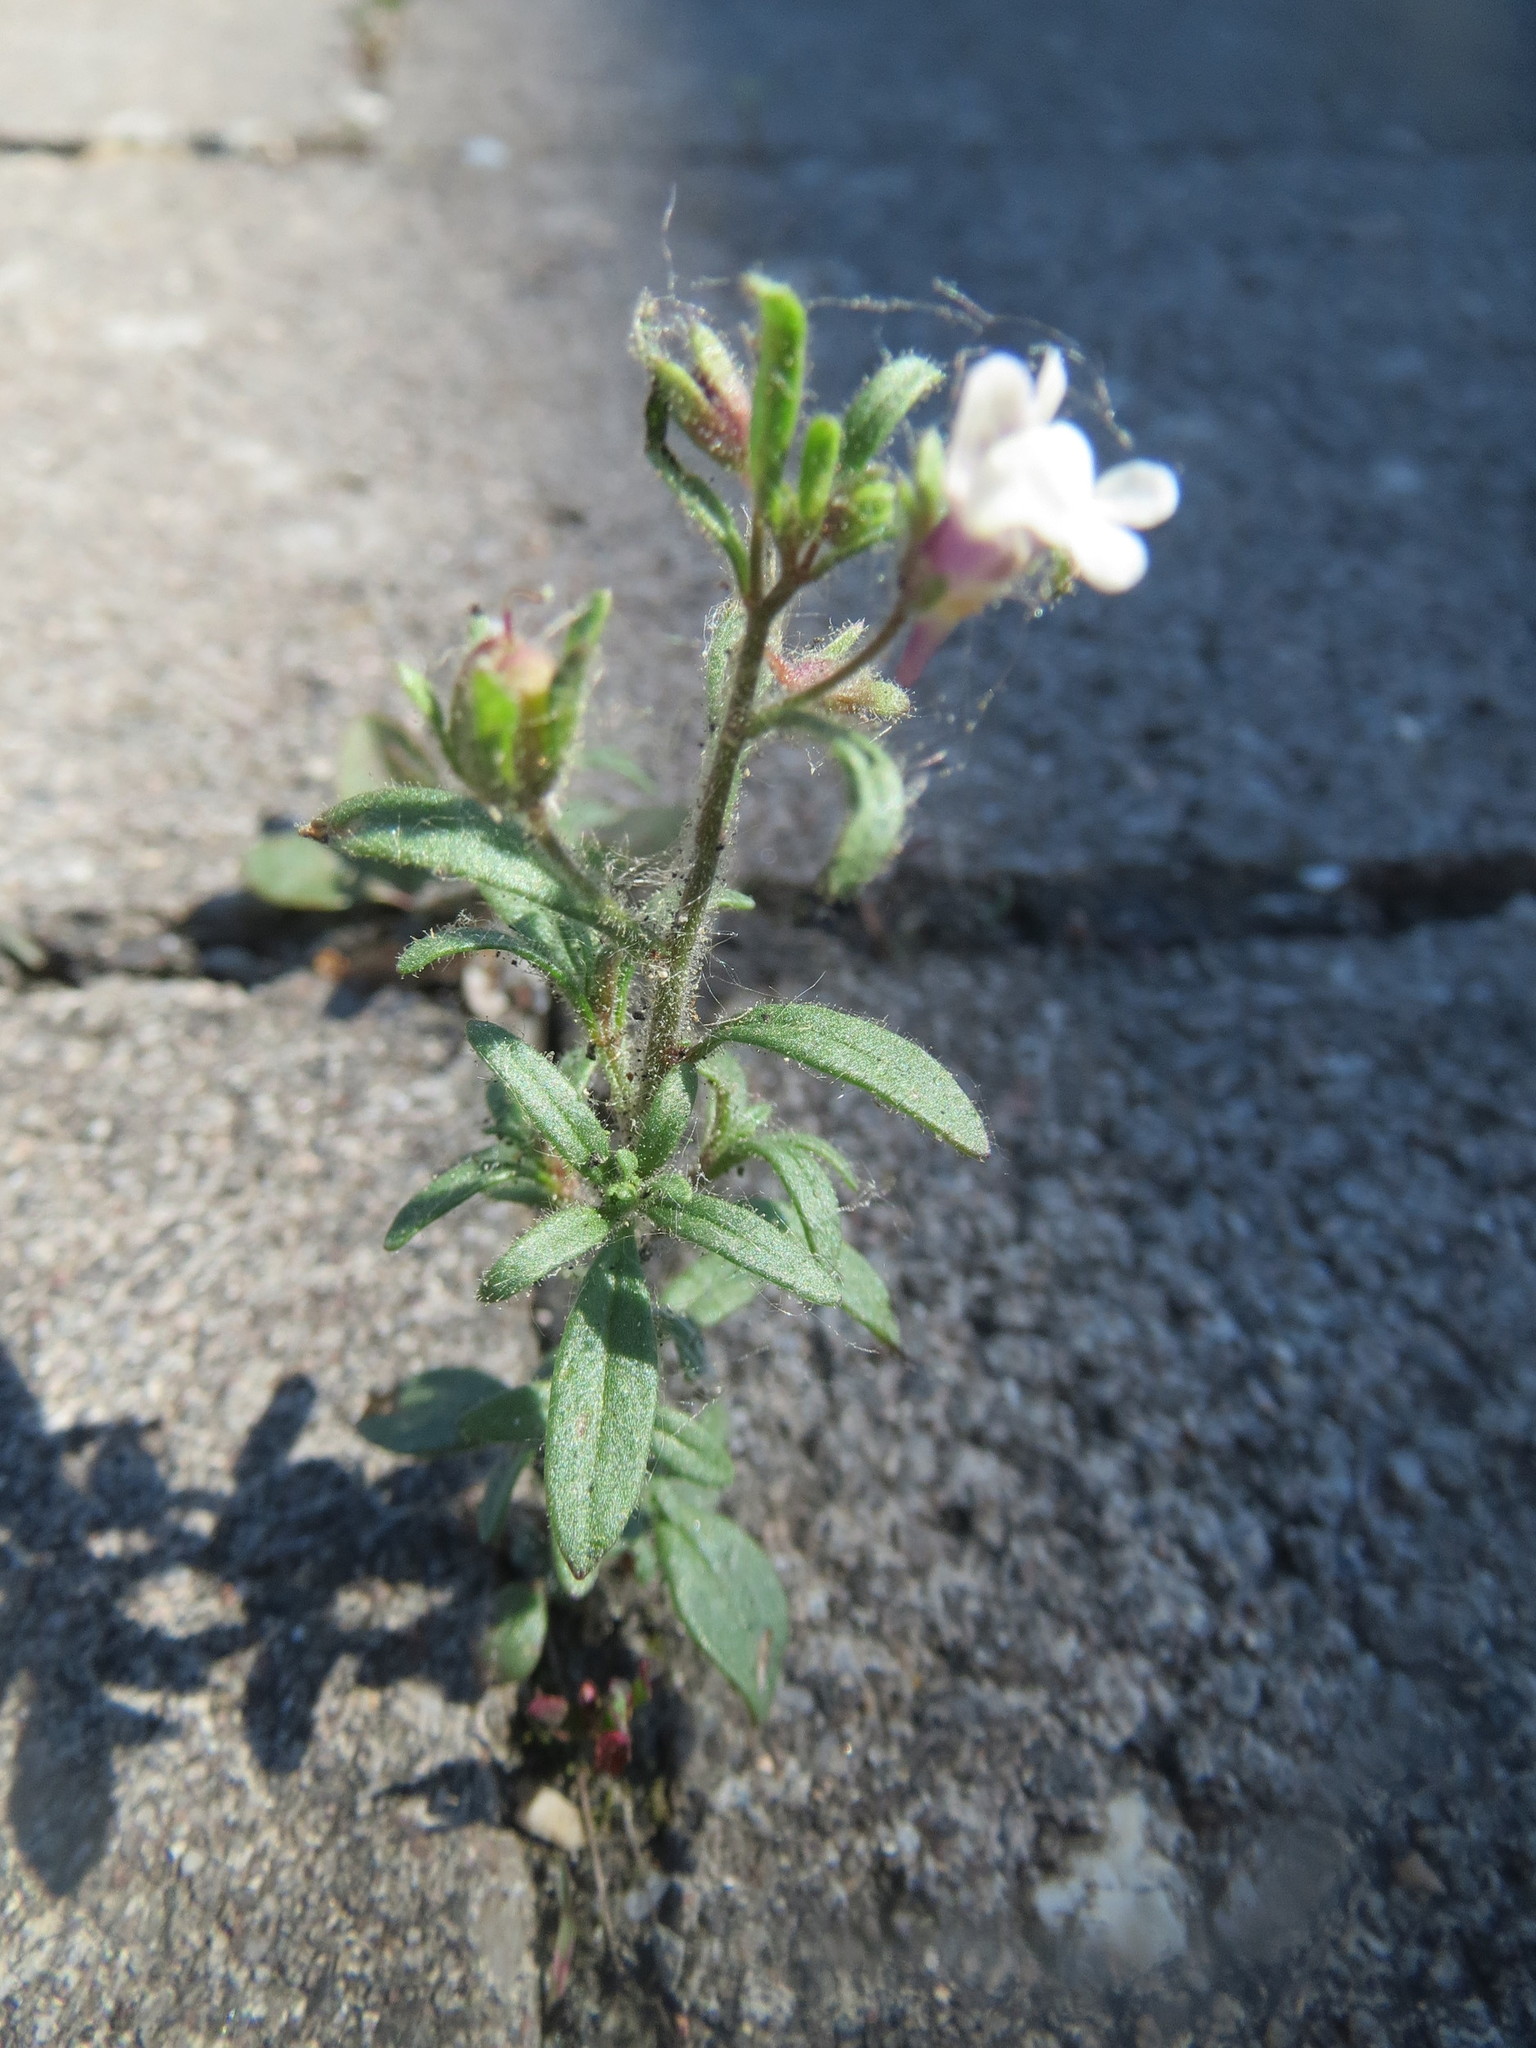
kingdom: Plantae
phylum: Tracheophyta
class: Magnoliopsida
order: Lamiales
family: Plantaginaceae
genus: Chaenorhinum
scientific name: Chaenorhinum minus
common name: Dwarf snapdragon
